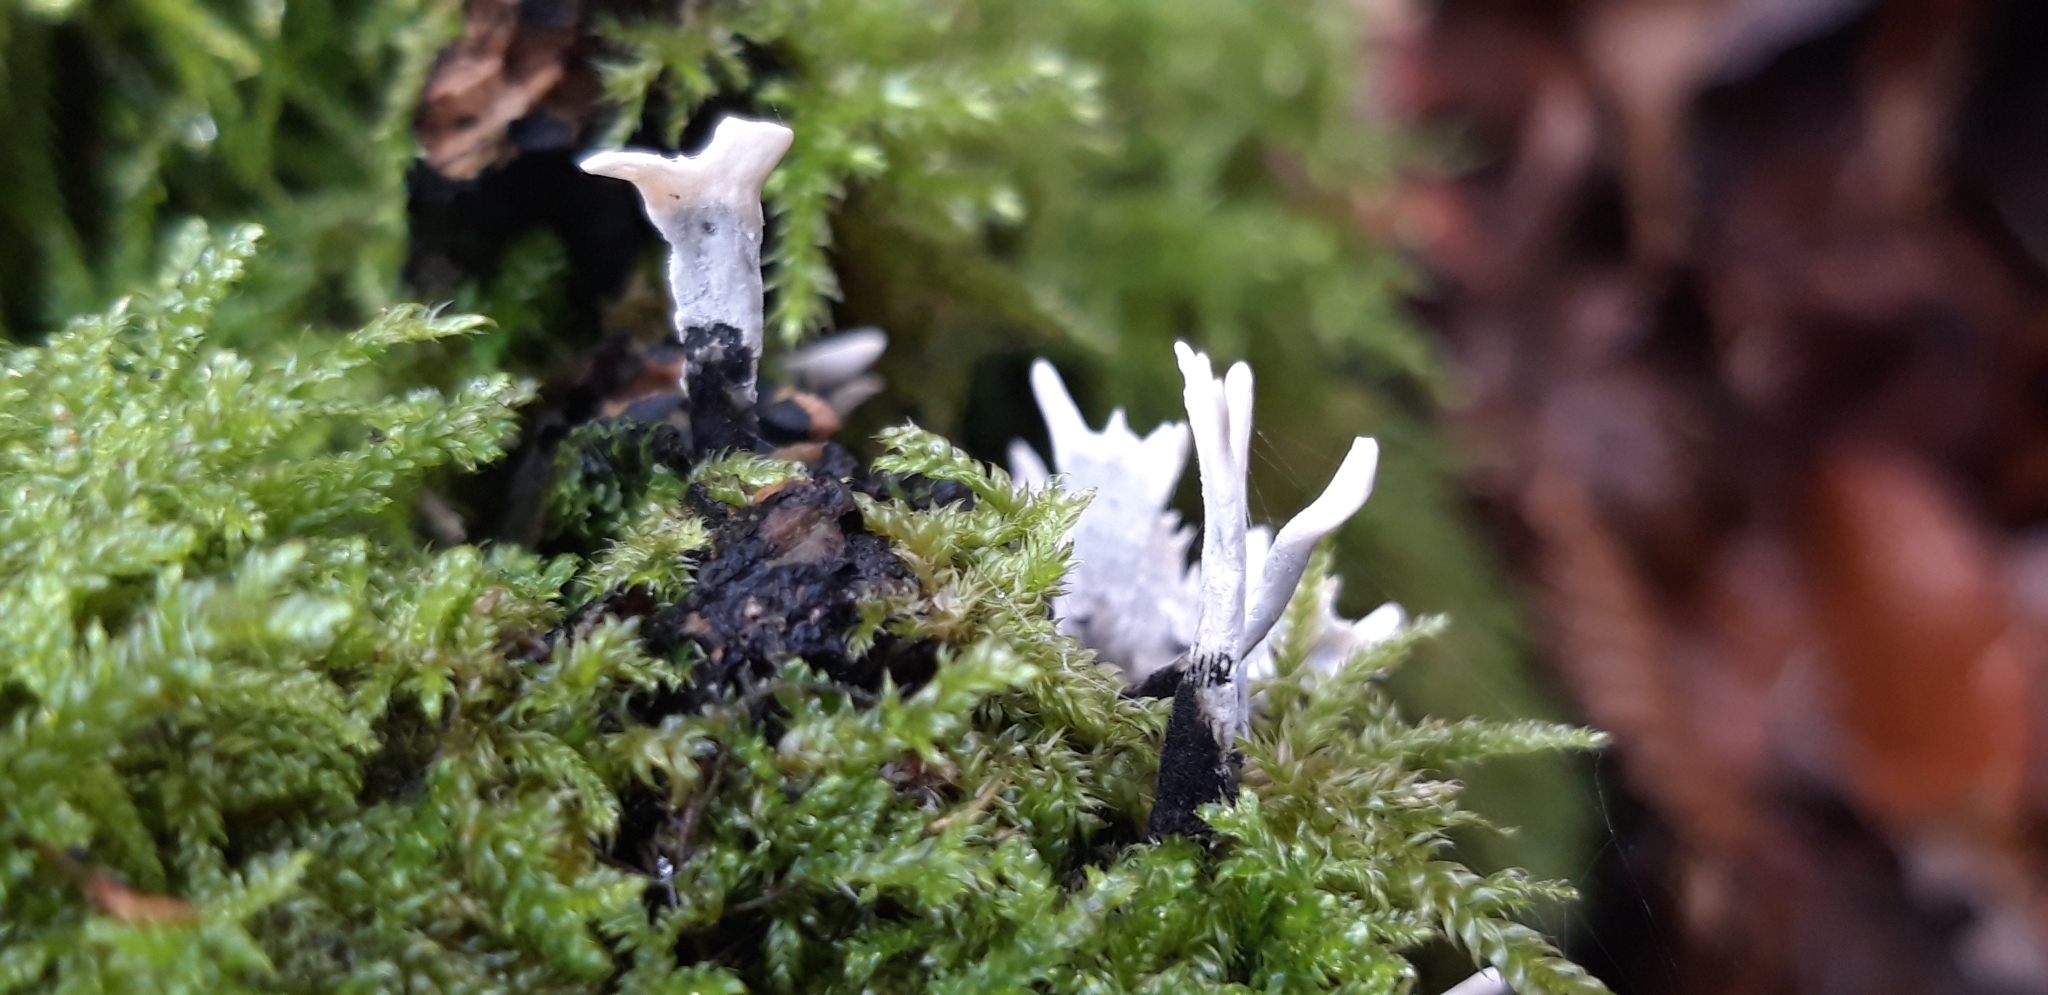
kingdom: Fungi
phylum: Ascomycota
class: Sordariomycetes
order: Xylariales
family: Xylariaceae
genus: Xylaria
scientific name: Xylaria hypoxylon
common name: Candle-snuff fungus
